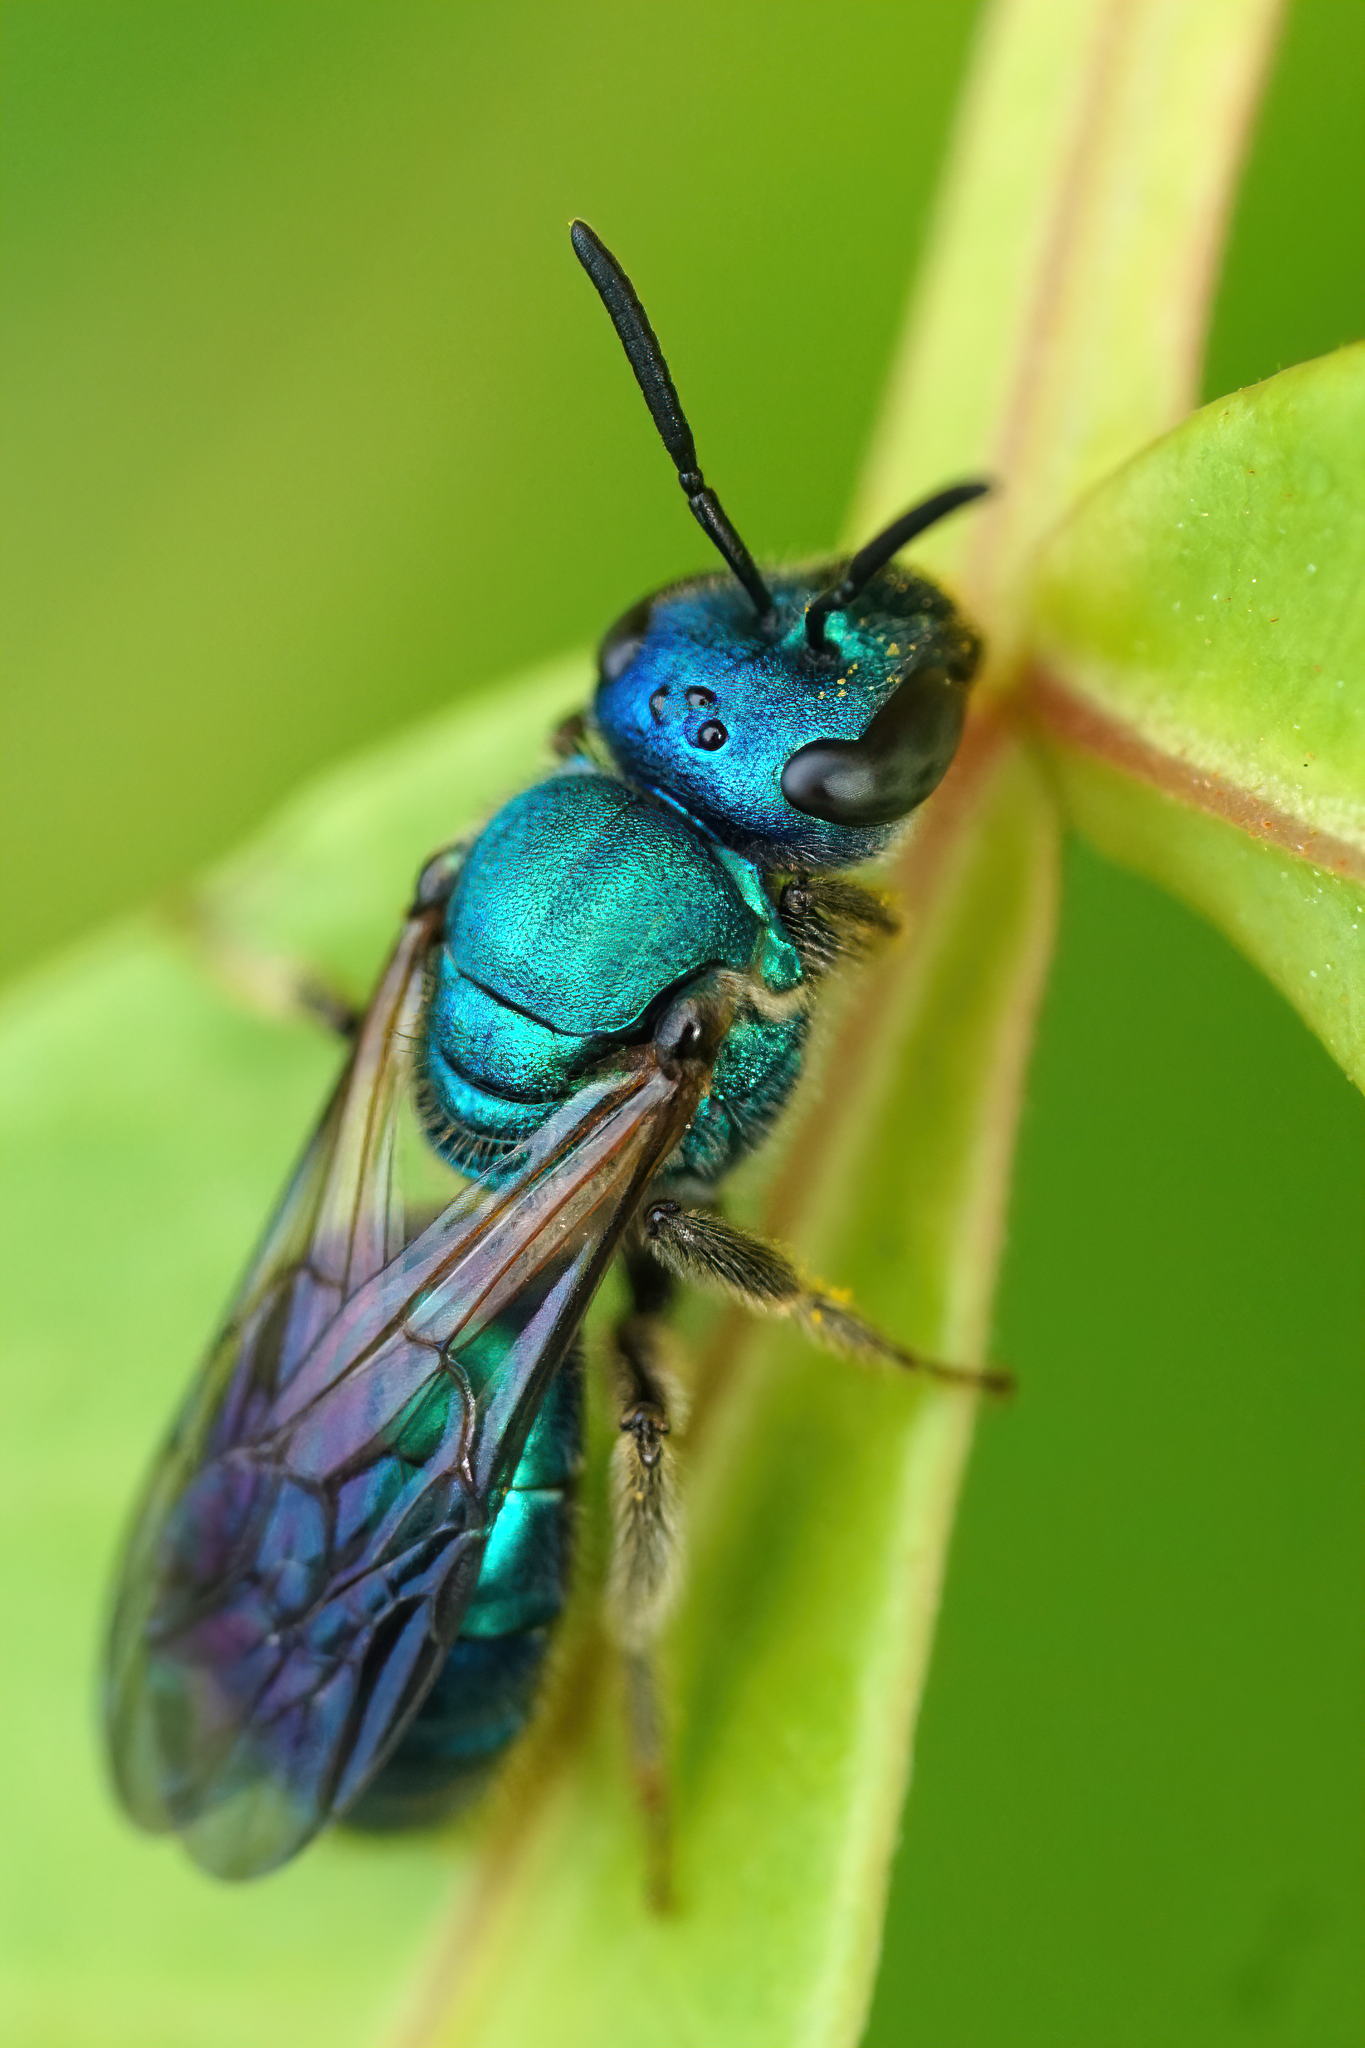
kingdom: Animalia
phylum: Arthropoda
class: Insecta
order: Hymenoptera
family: Halictidae
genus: Augochlora
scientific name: Augochlora pura
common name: Pure green sweat bee
